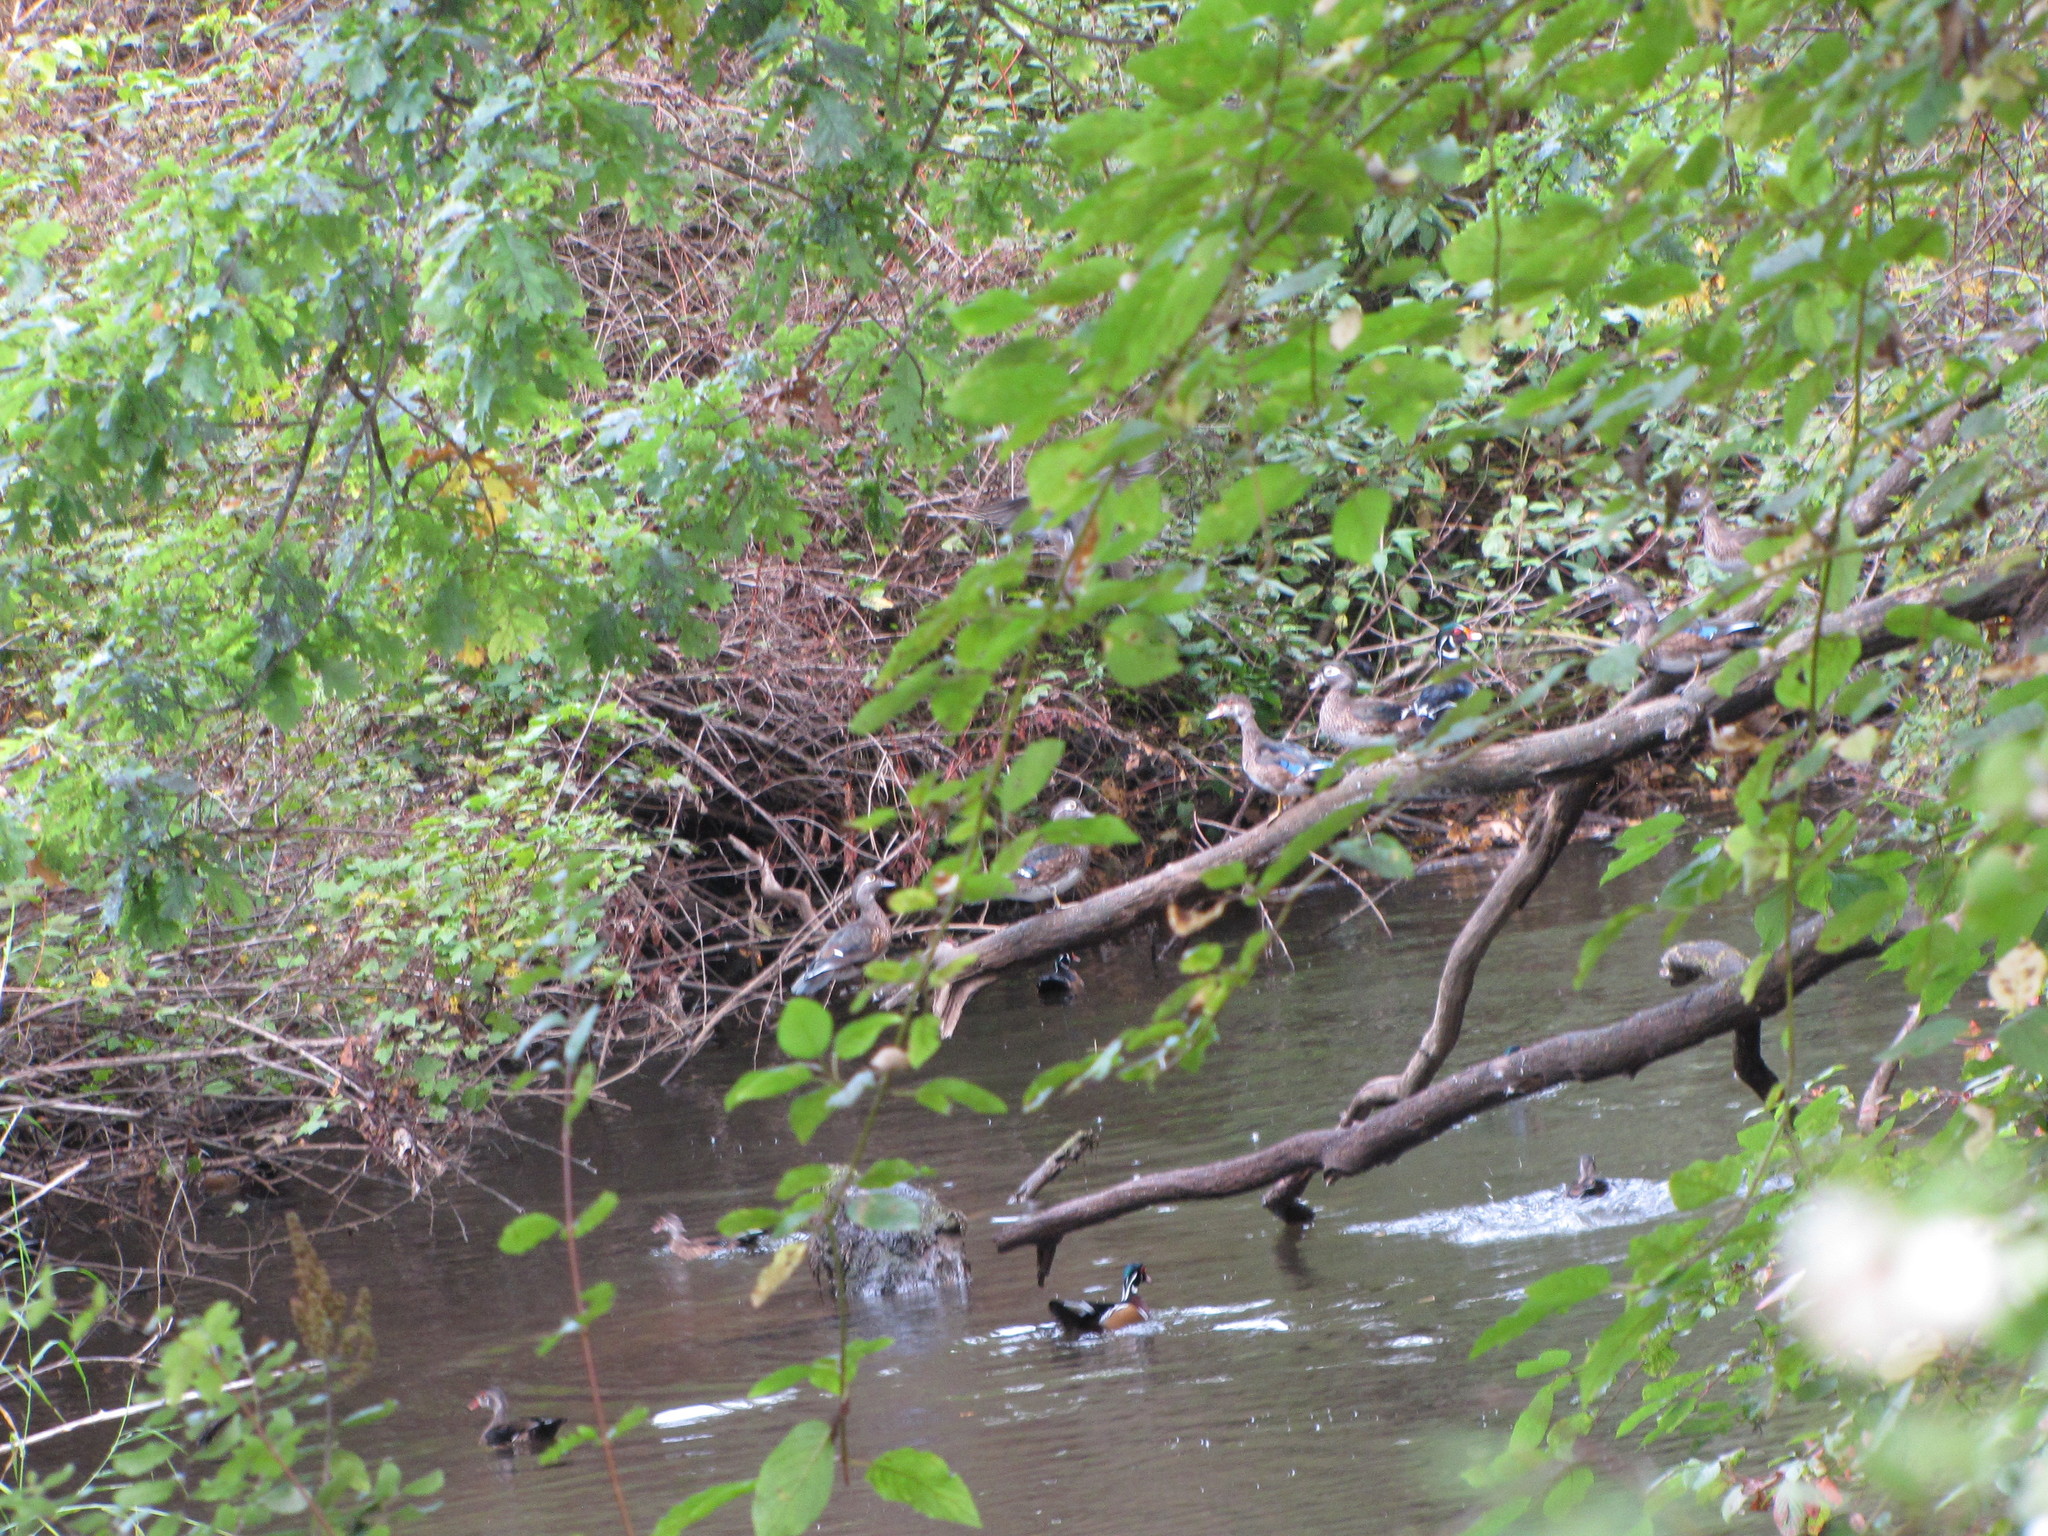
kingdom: Animalia
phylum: Chordata
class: Aves
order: Anseriformes
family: Anatidae
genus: Aix
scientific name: Aix sponsa
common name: Wood duck
